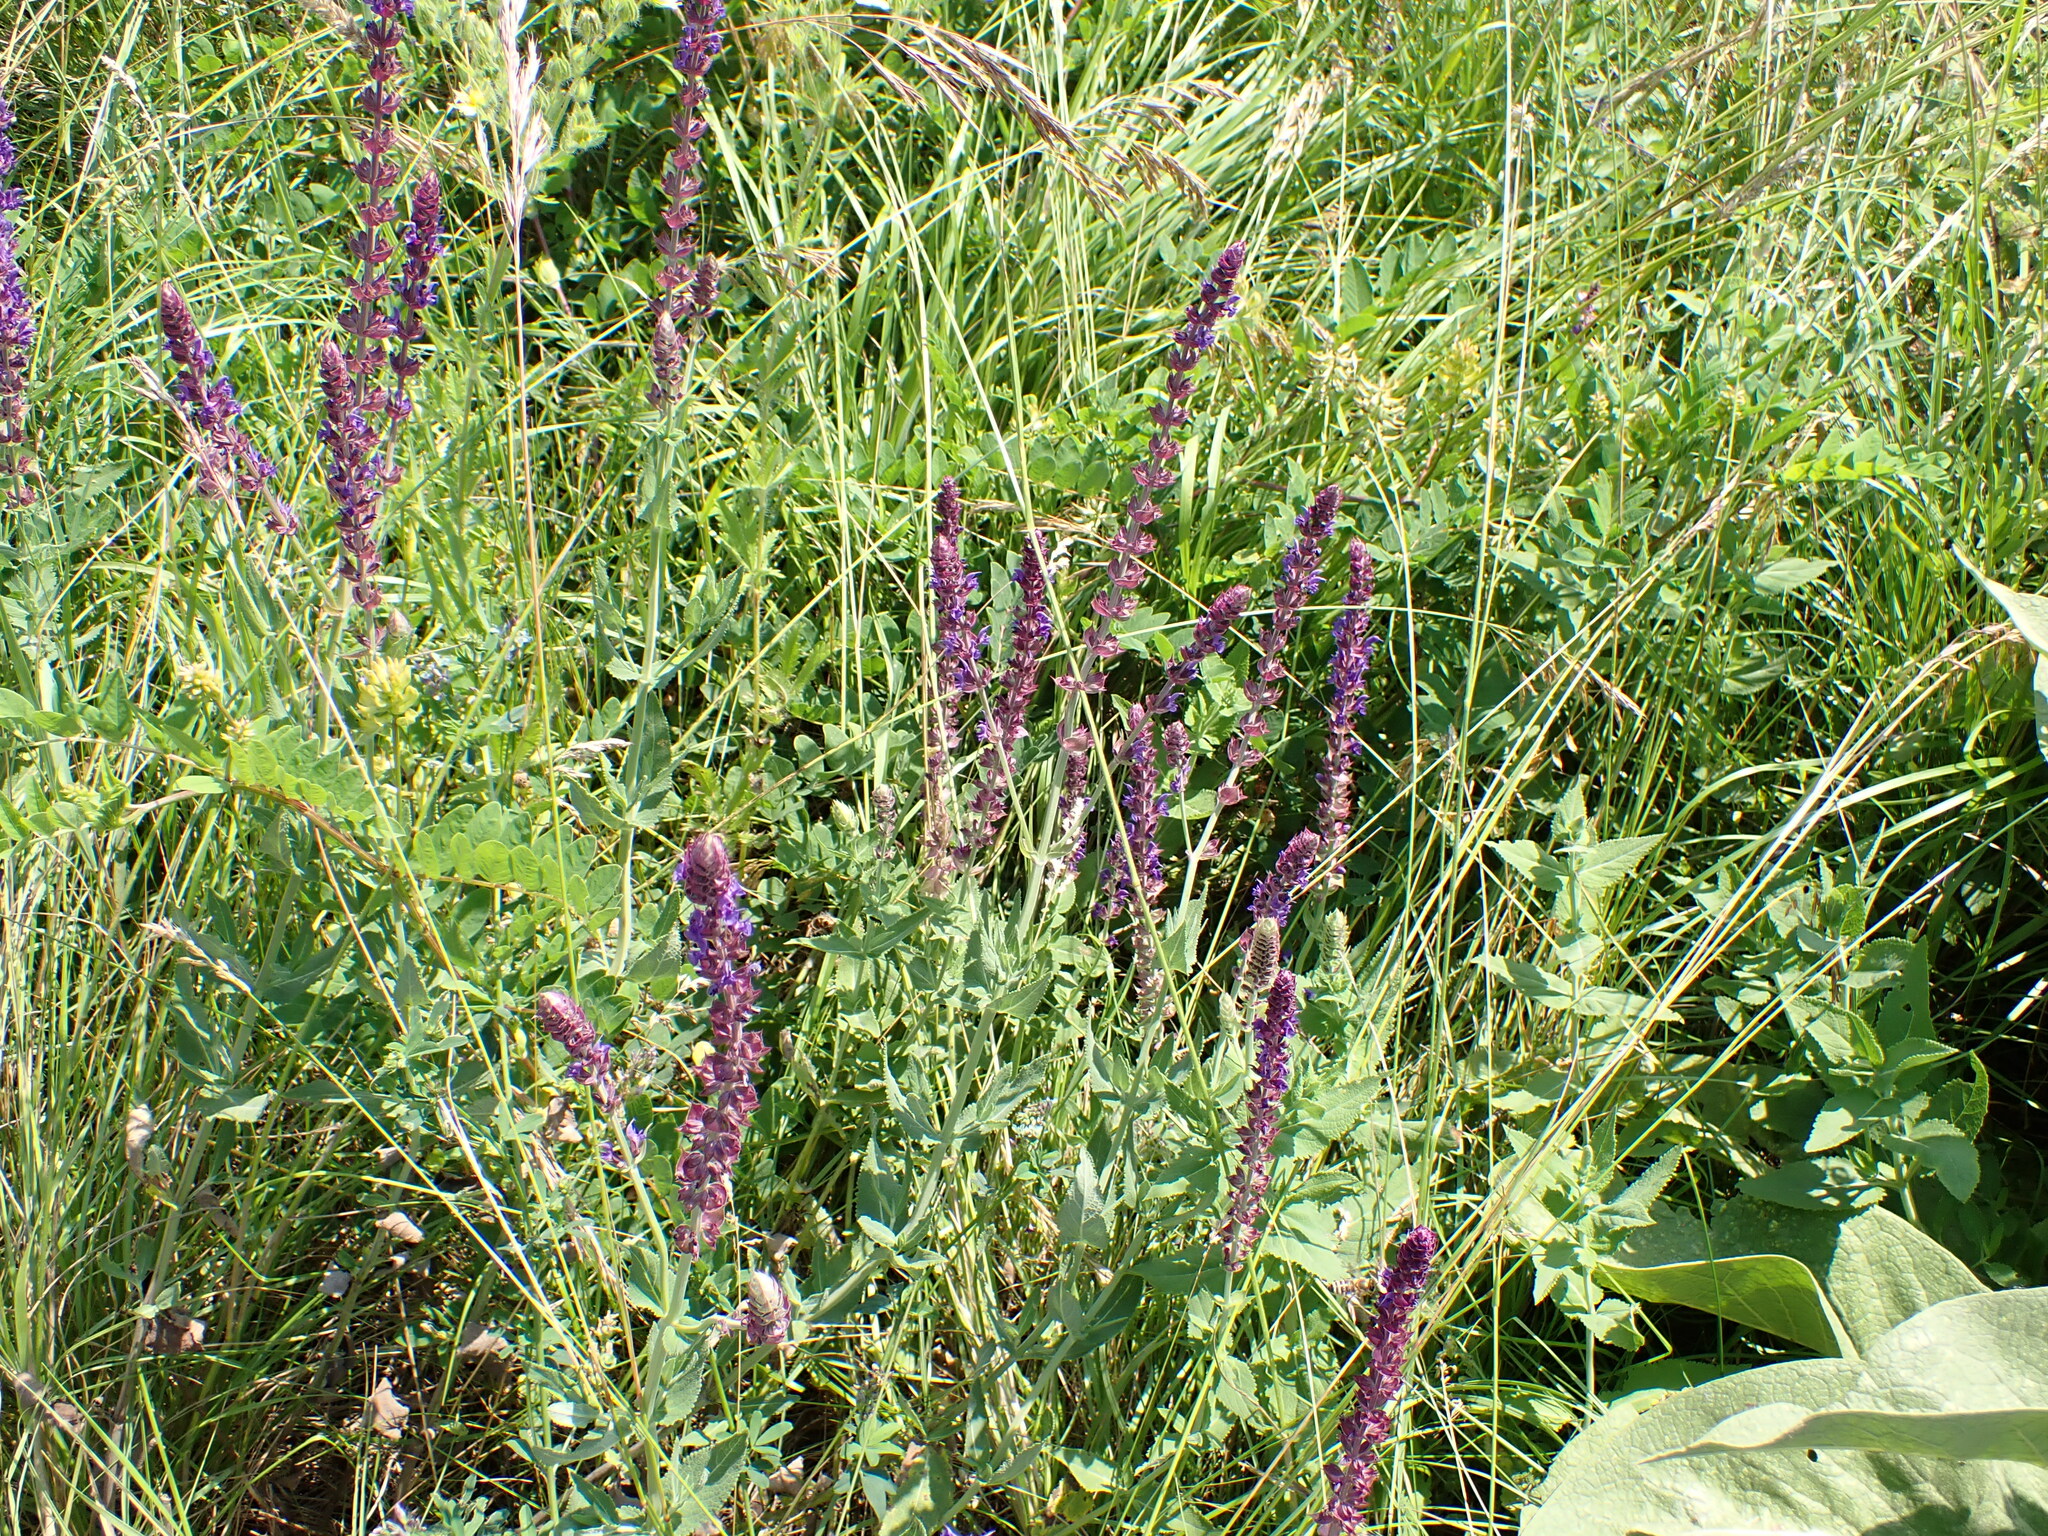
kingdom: Plantae
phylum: Tracheophyta
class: Magnoliopsida
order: Lamiales
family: Lamiaceae
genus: Salvia
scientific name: Salvia nemorosa
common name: Balkan clary
